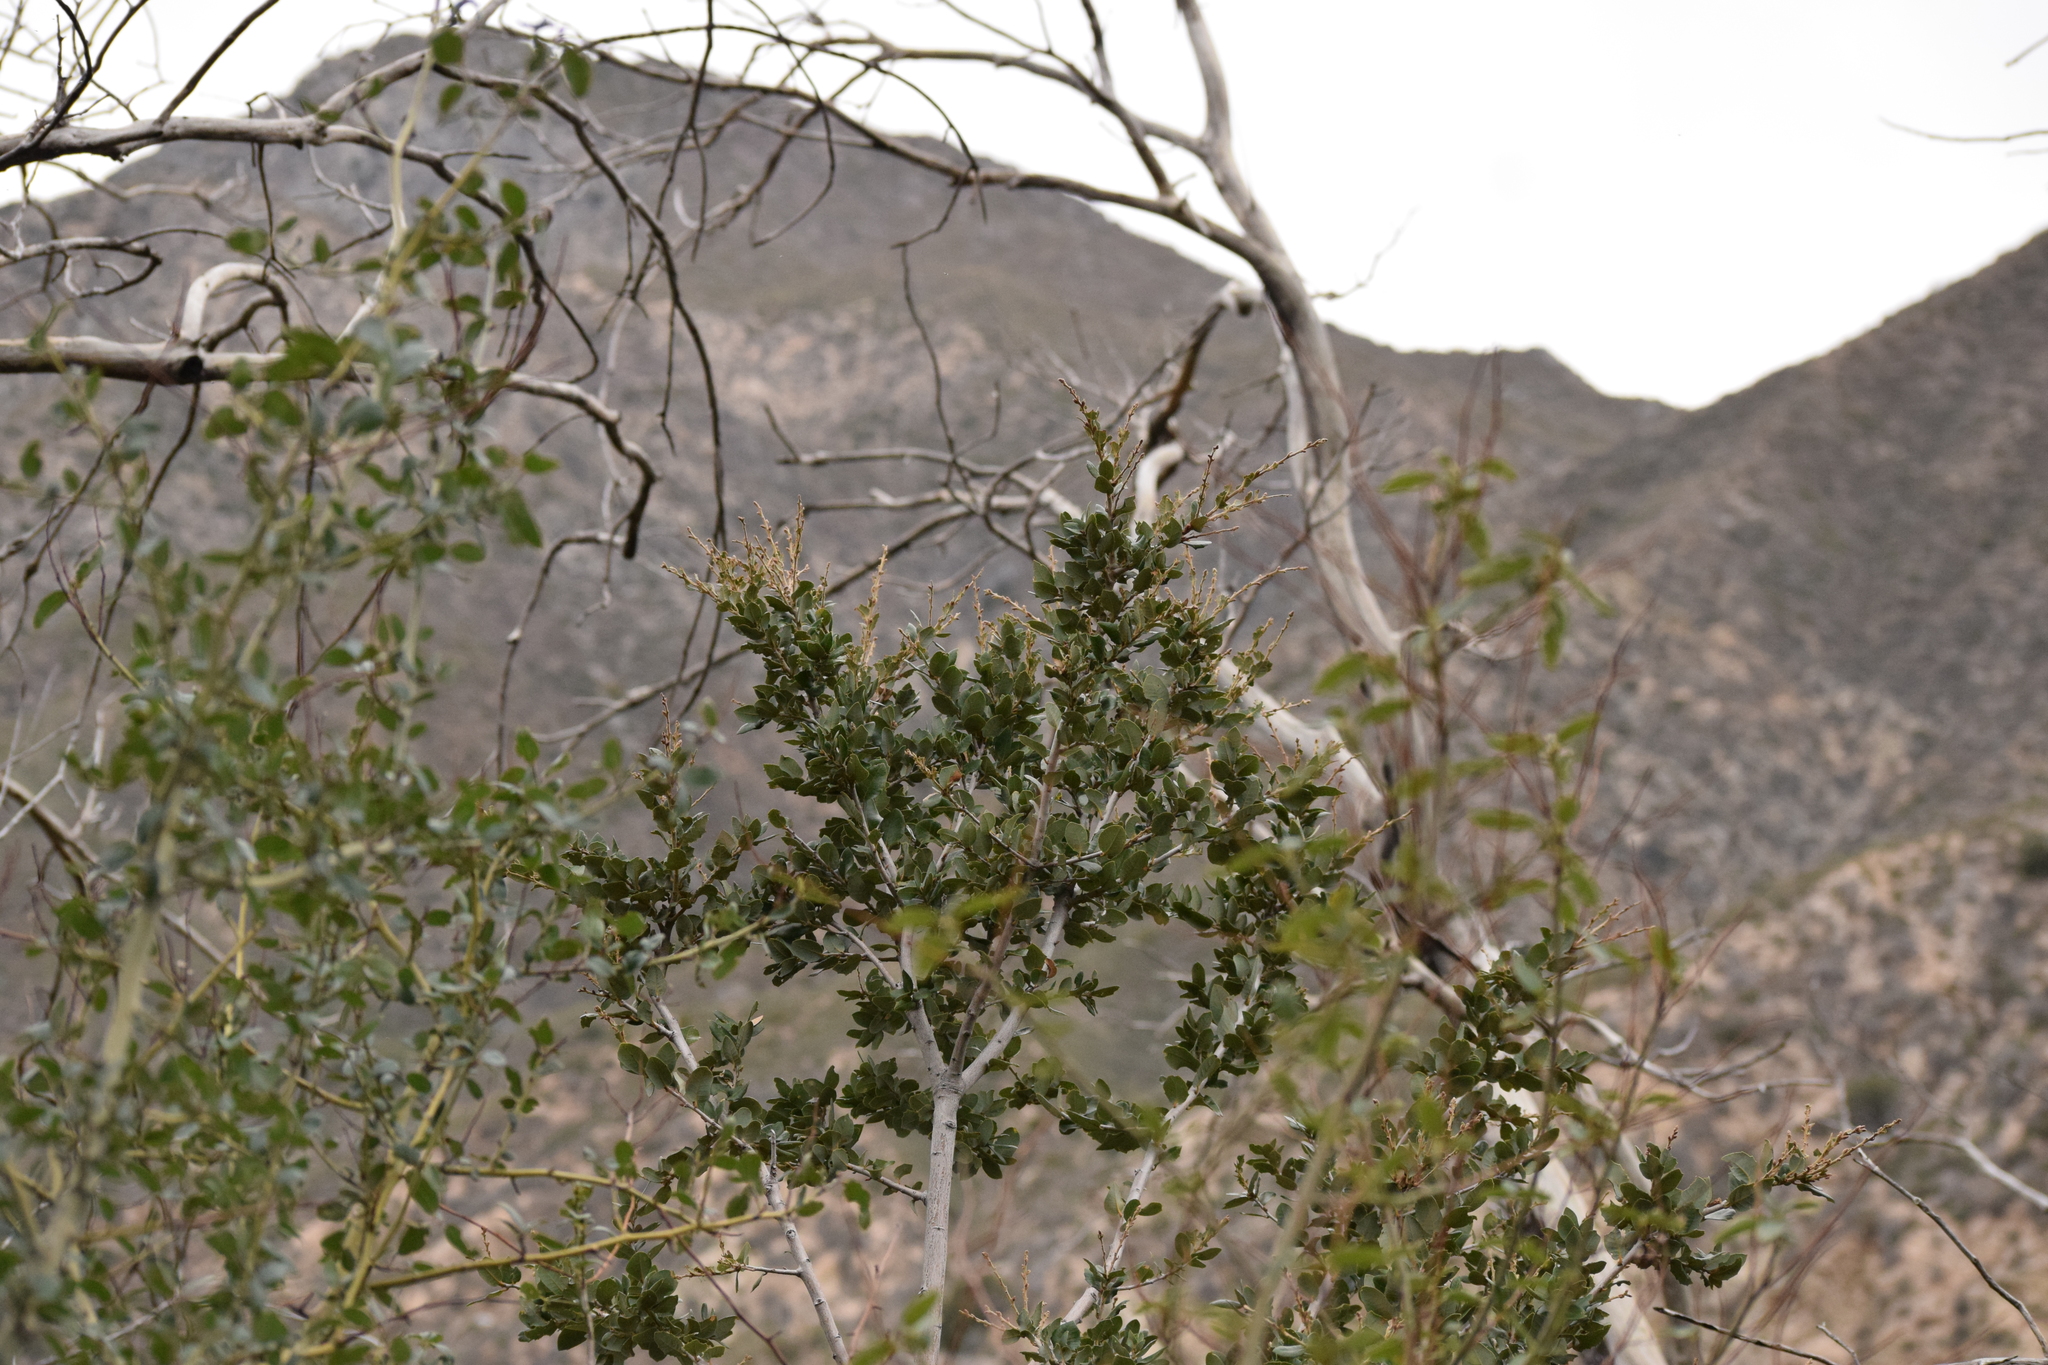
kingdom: Plantae
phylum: Tracheophyta
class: Magnoliopsida
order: Fagales
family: Fagaceae
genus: Quercus
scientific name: Quercus chrysolepis
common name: Canyon live oak
